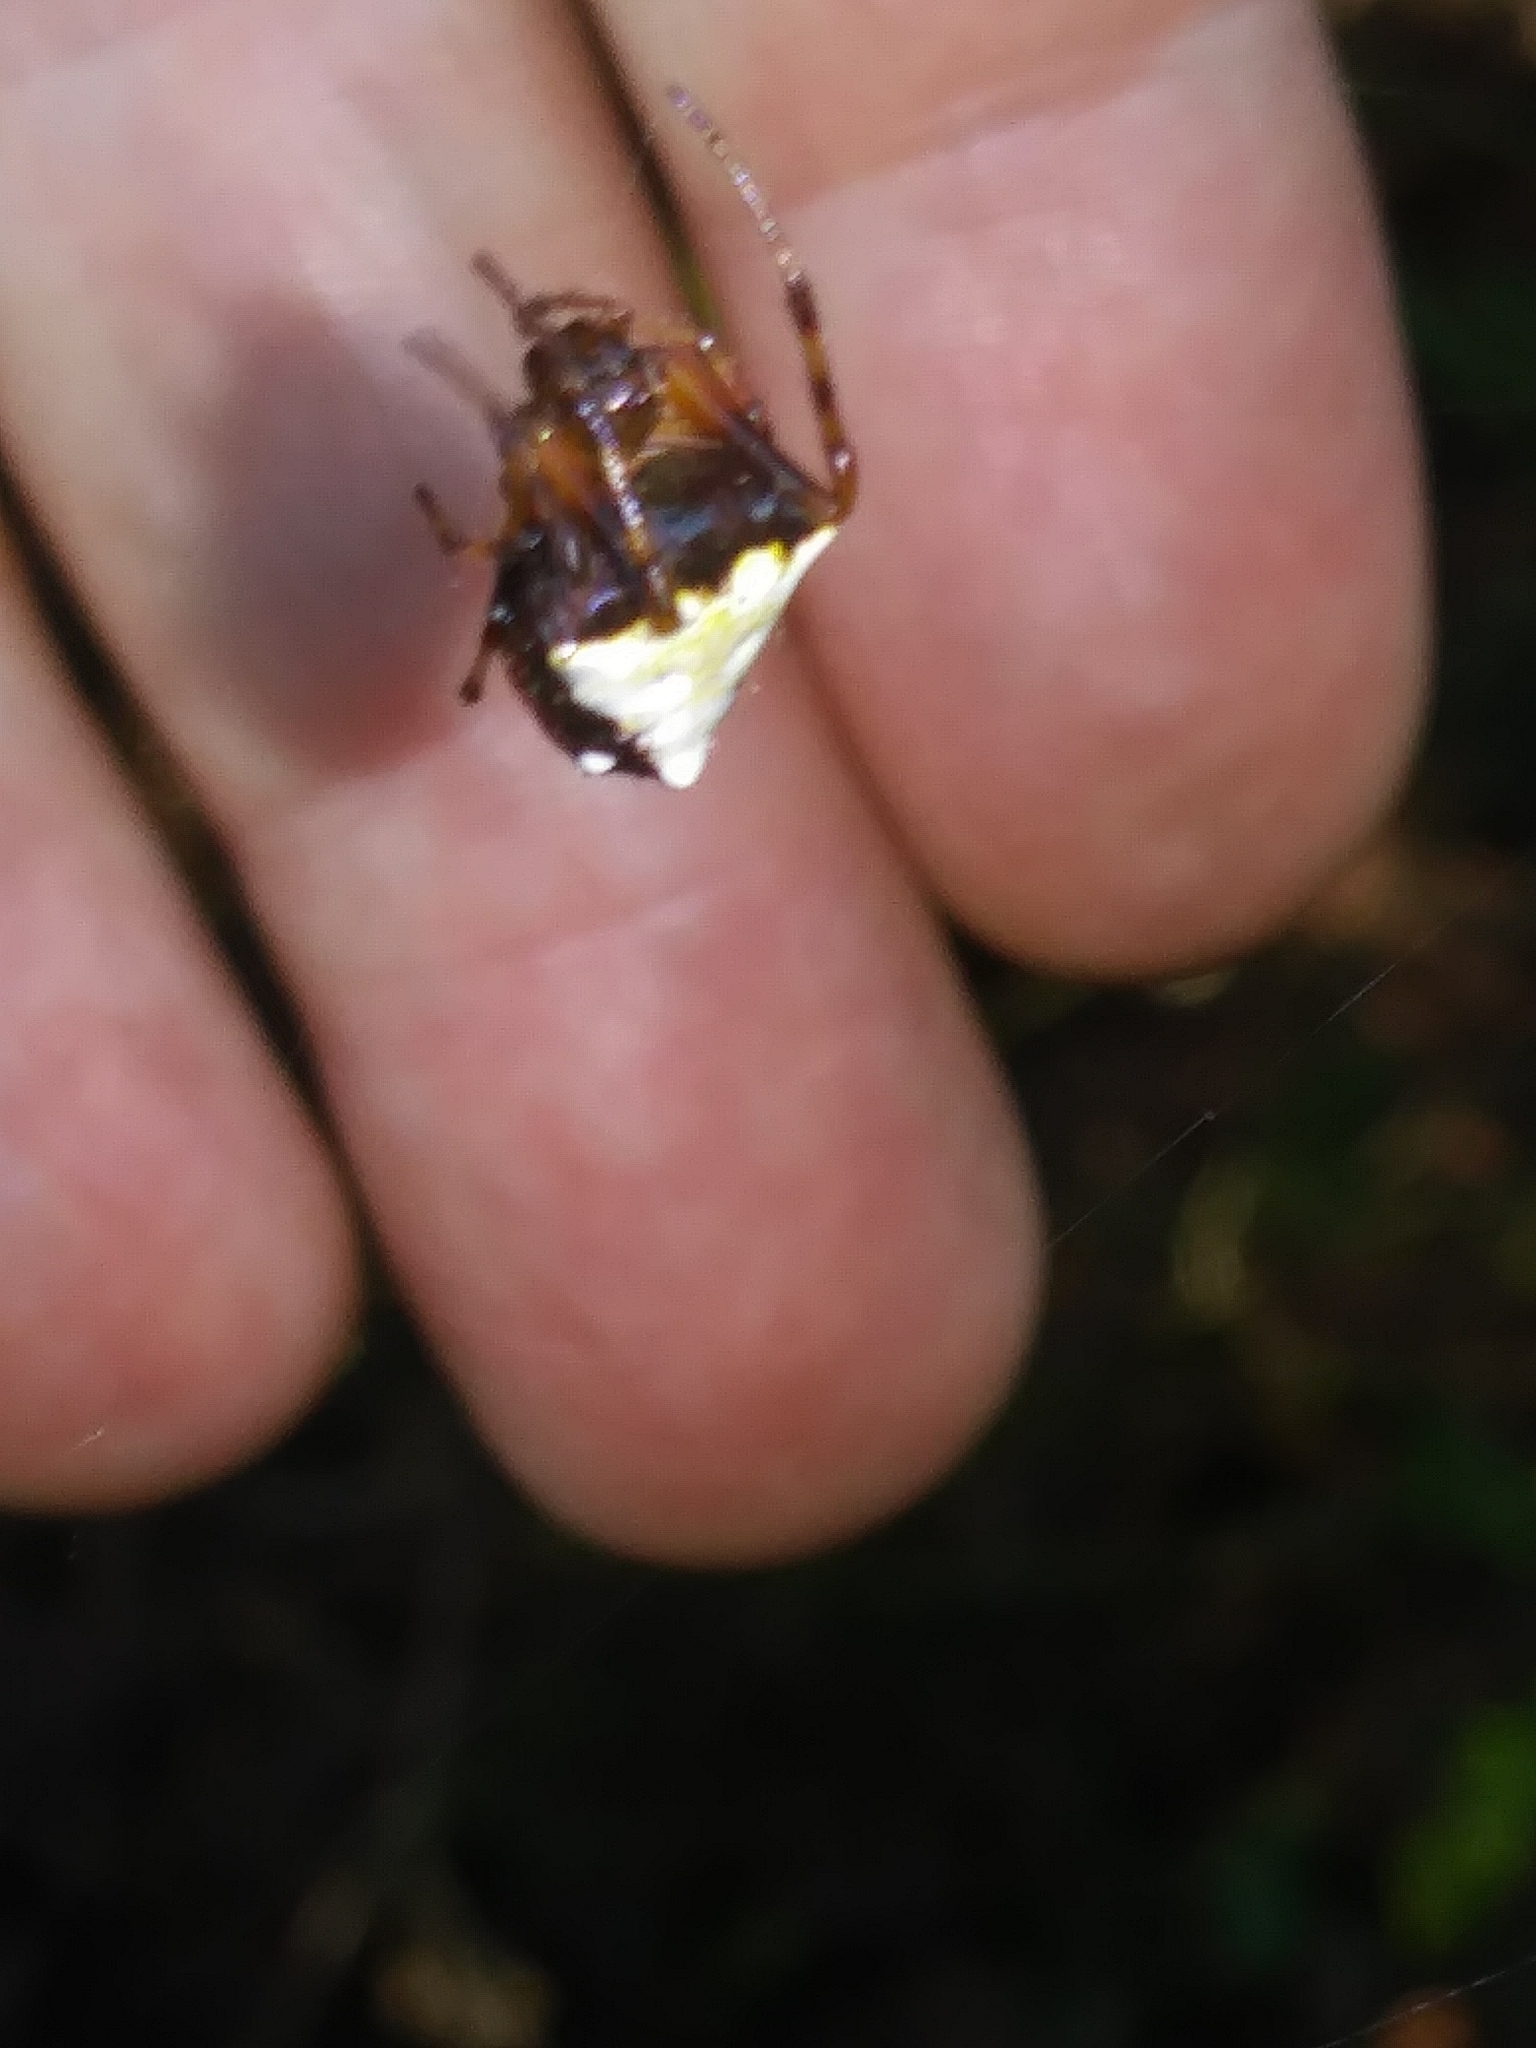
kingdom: Animalia
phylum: Arthropoda
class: Arachnida
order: Araneae
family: Araneidae
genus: Verrucosa
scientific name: Verrucosa arenata
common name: Orb weavers
